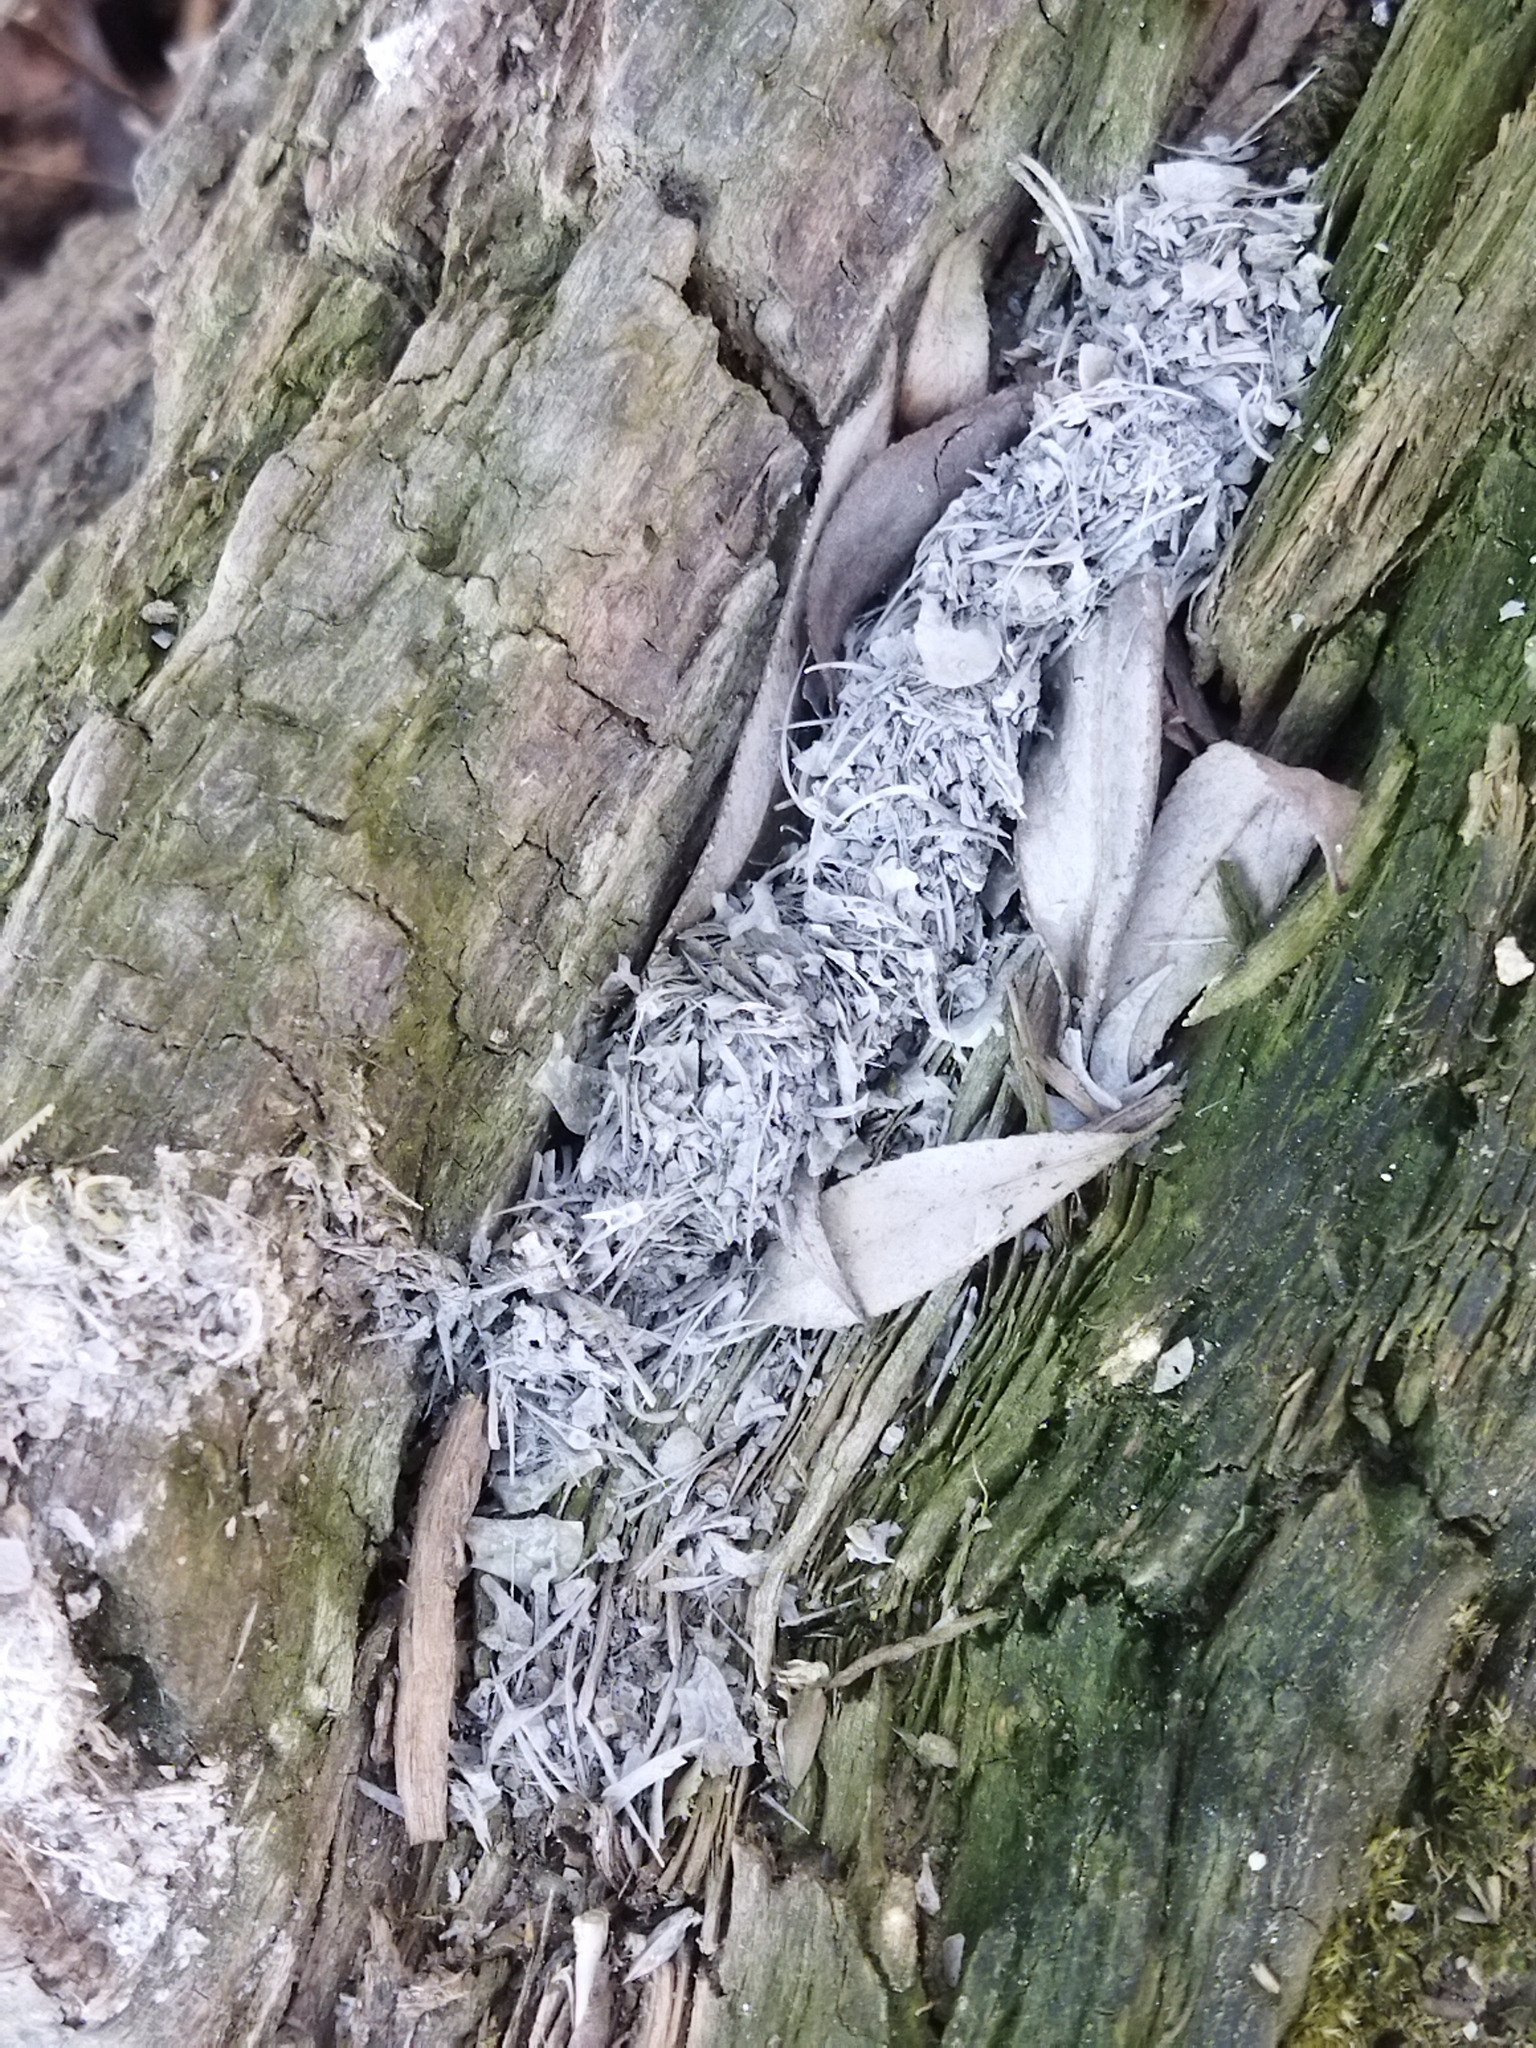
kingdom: Animalia
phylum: Chordata
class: Mammalia
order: Carnivora
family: Mustelidae
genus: Lutra
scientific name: Lutra lutra
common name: European otter
